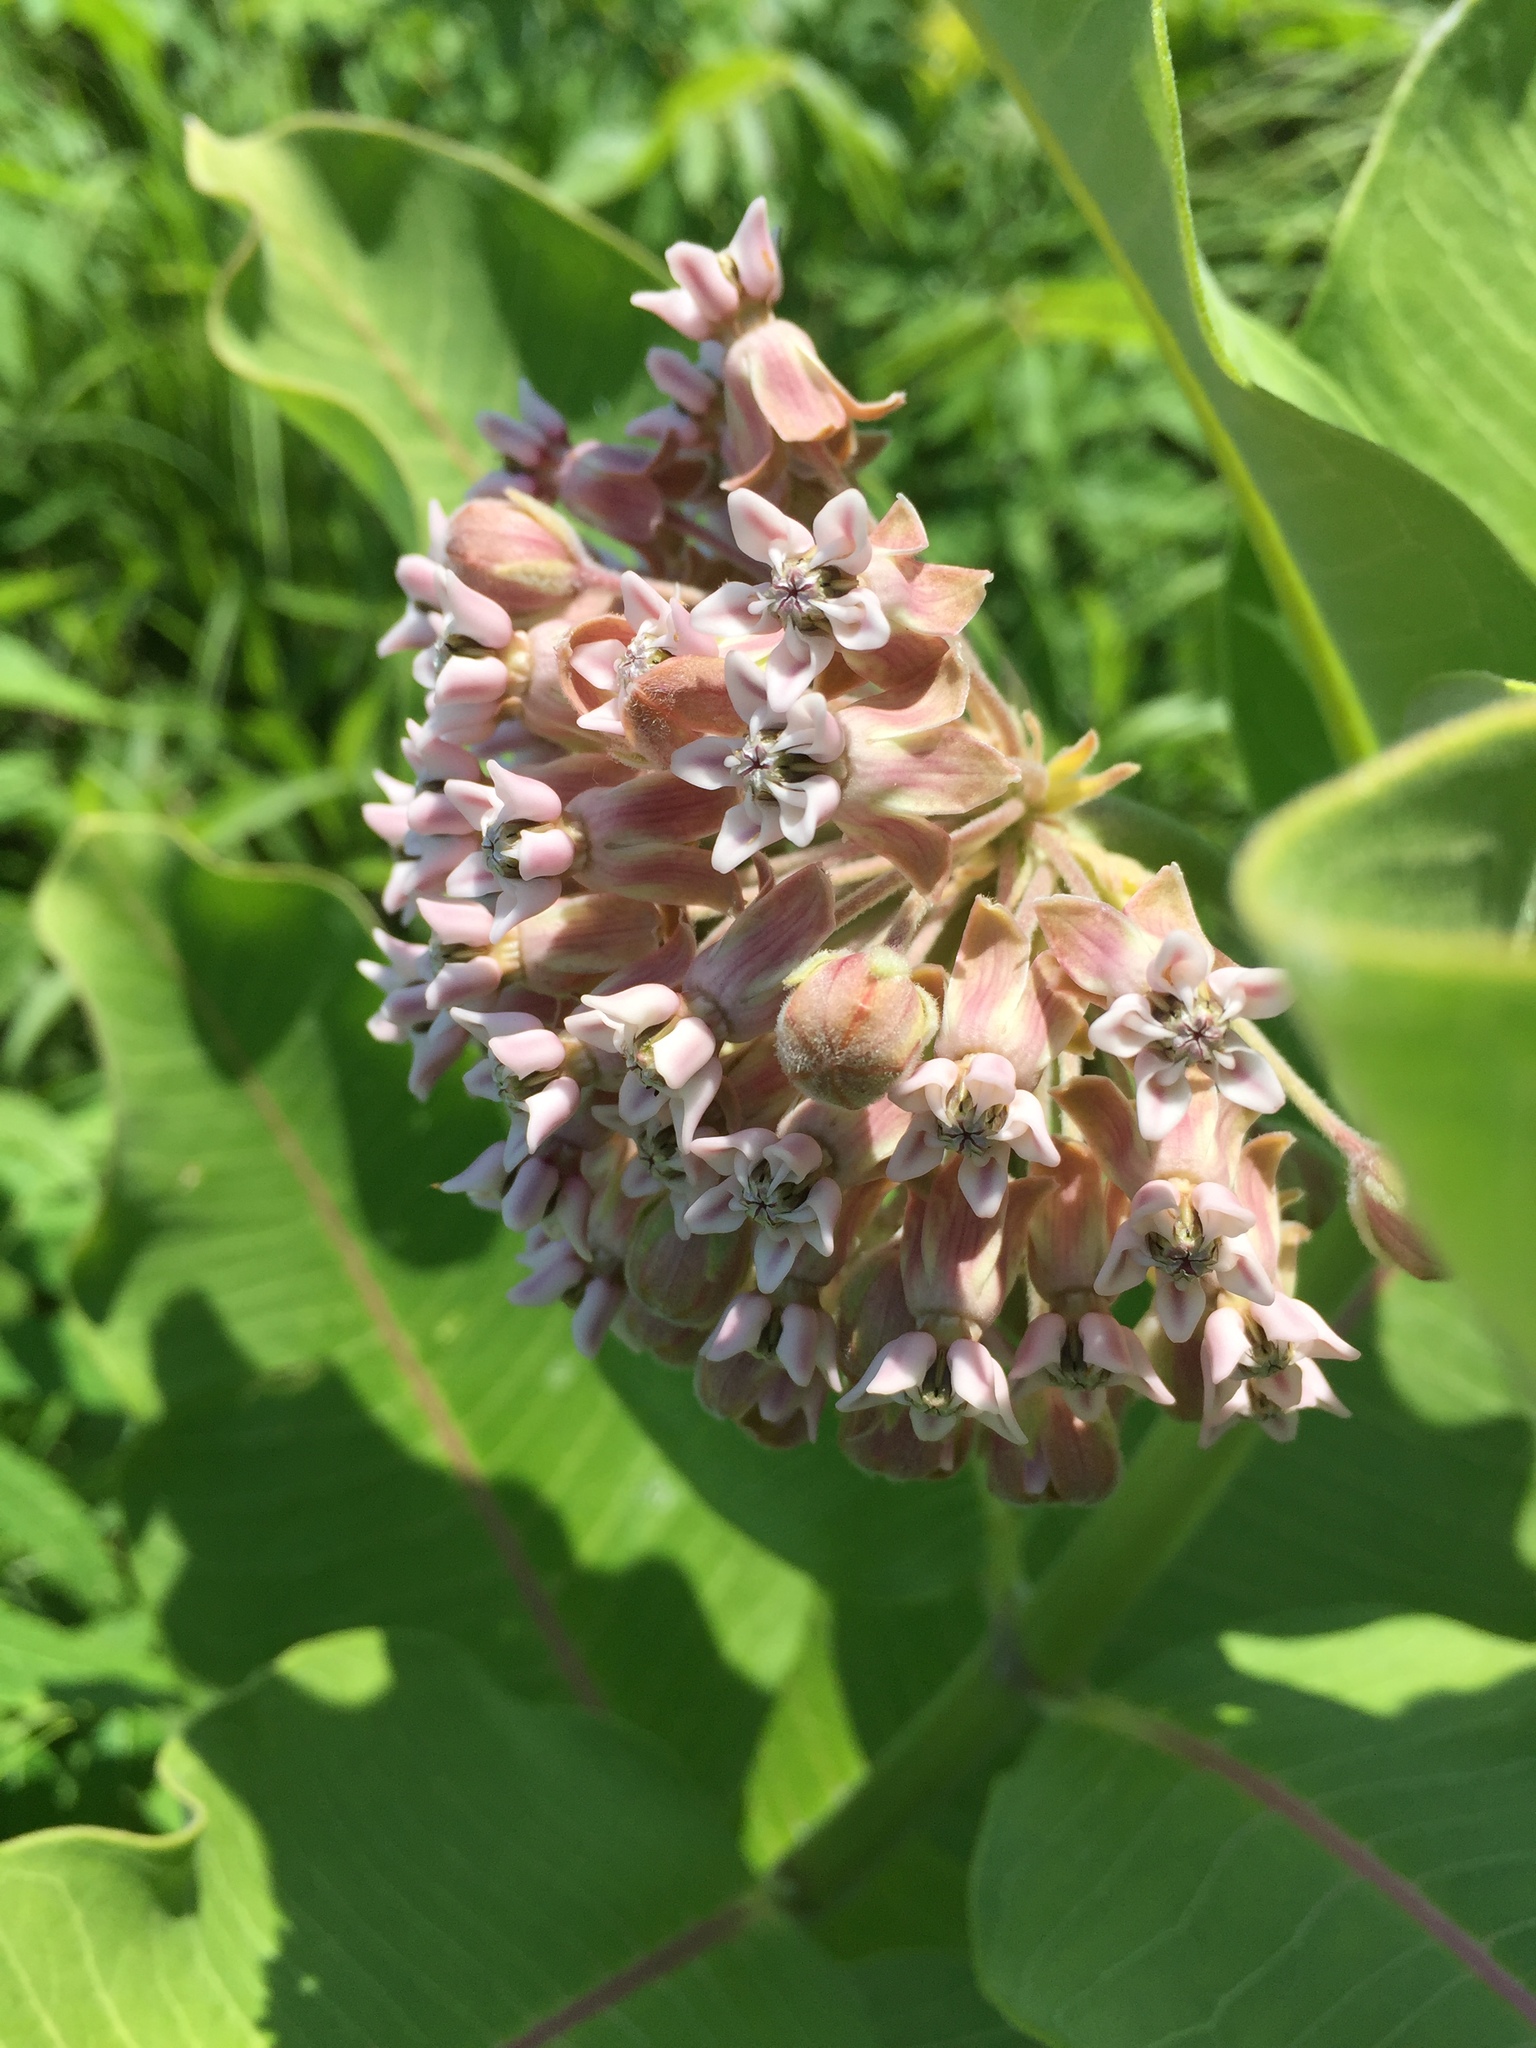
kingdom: Plantae
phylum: Tracheophyta
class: Magnoliopsida
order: Gentianales
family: Apocynaceae
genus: Asclepias
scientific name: Asclepias syriaca
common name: Common milkweed
